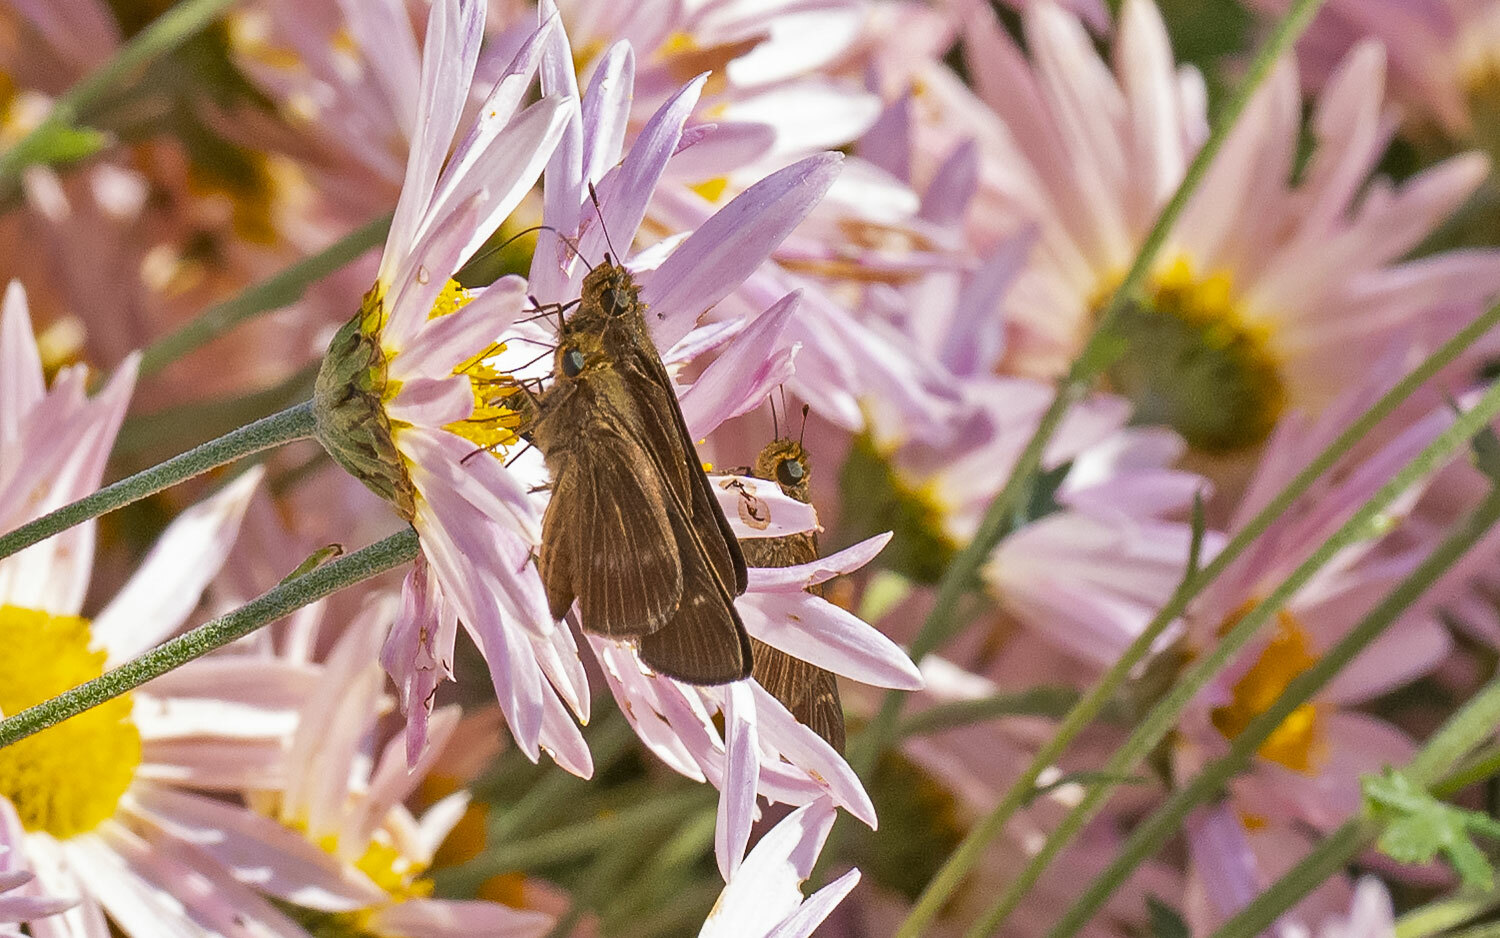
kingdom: Animalia
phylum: Arthropoda
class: Insecta
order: Lepidoptera
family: Hesperiidae
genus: Panoquina
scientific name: Panoquina ocola
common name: Ocola skipper
